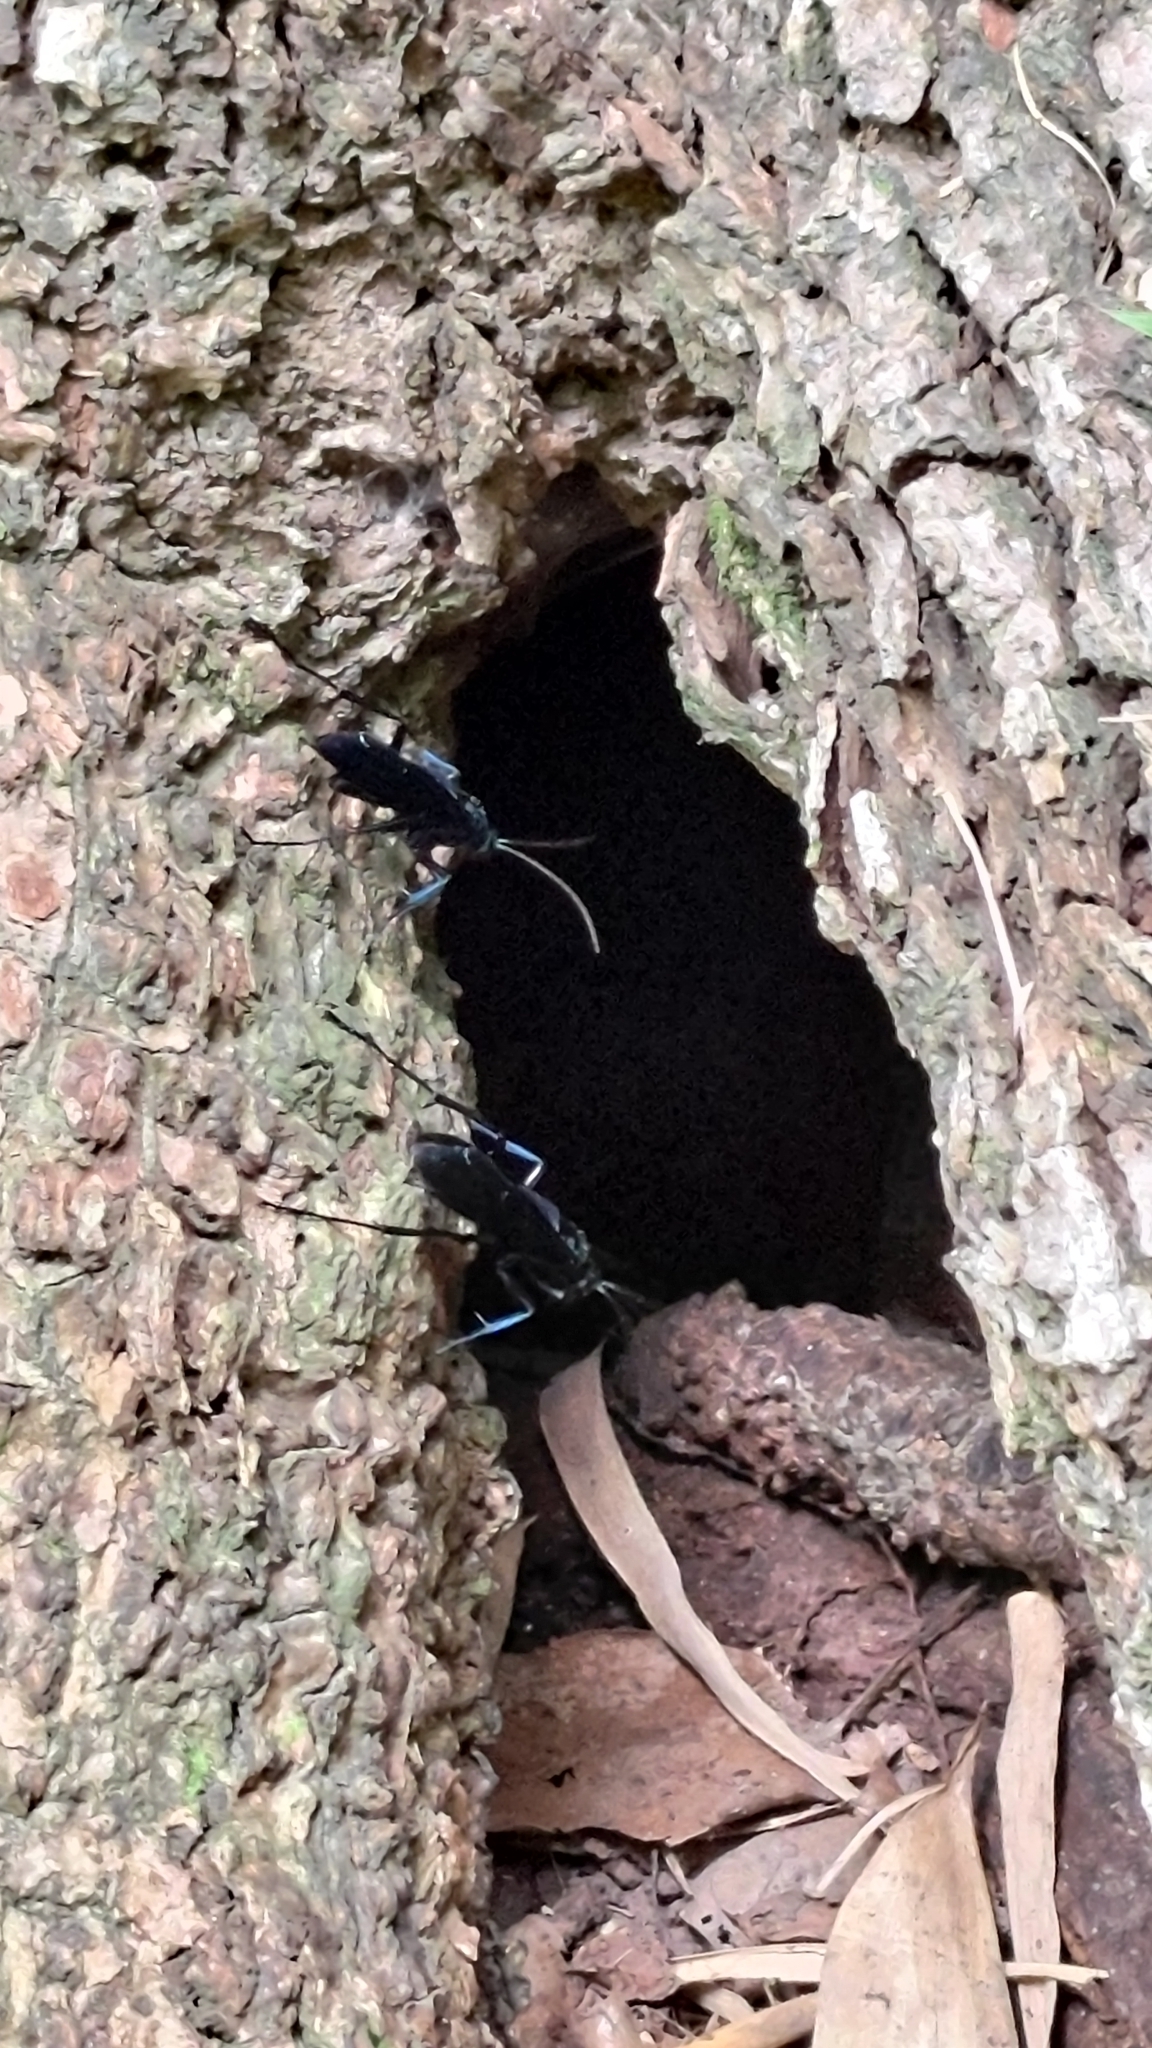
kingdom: Animalia
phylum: Arthropoda
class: Insecta
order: Hymenoptera
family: Pompilidae
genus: Java
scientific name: Java nigrita
